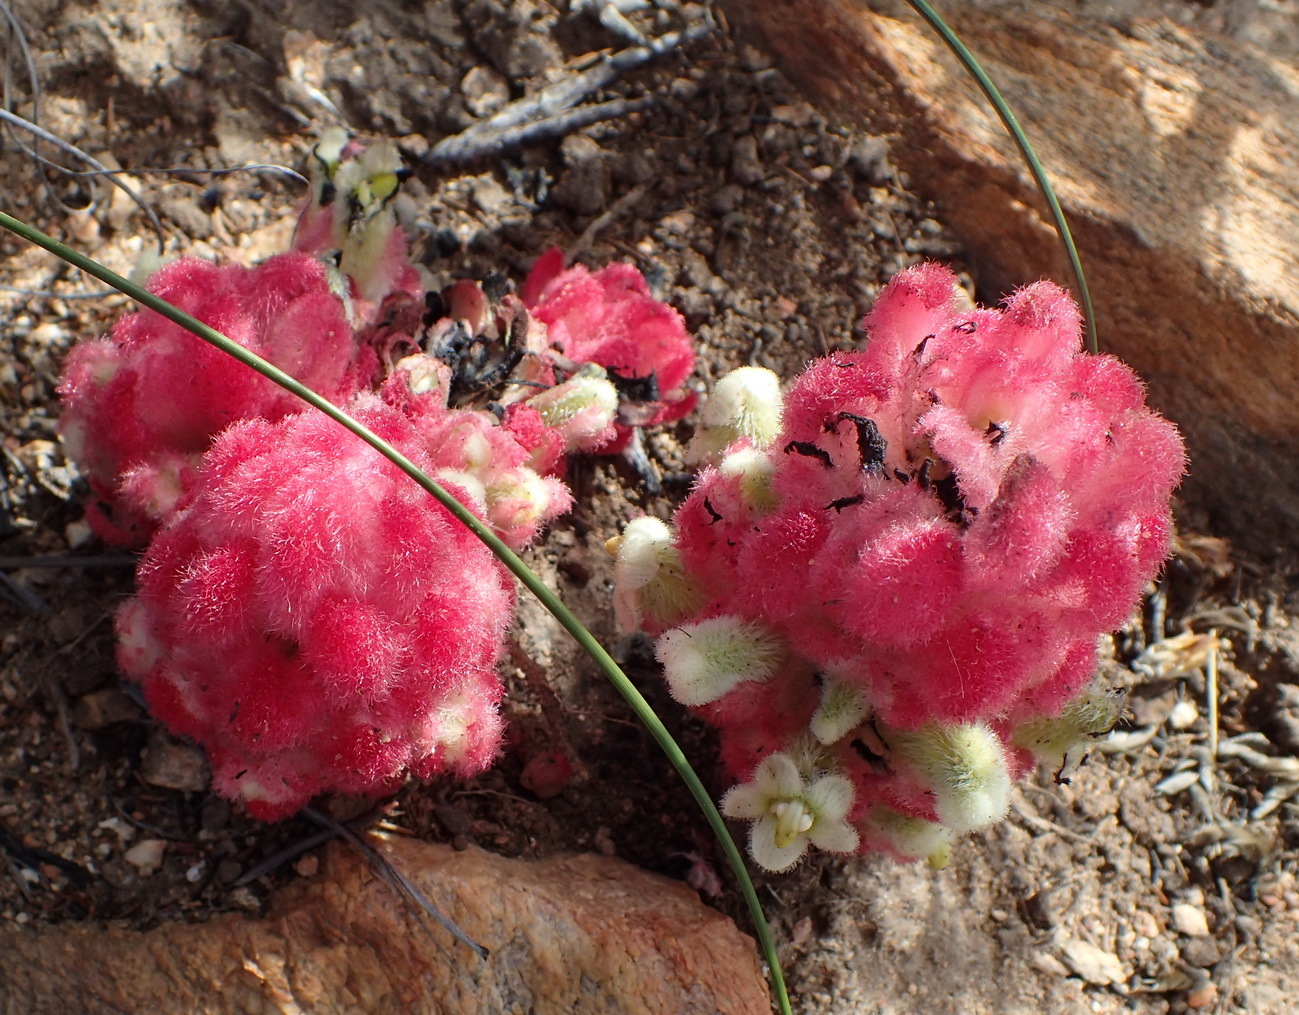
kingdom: Plantae
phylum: Tracheophyta
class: Magnoliopsida
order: Lamiales
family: Orobanchaceae
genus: Harveya
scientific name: Harveya roseoalba
